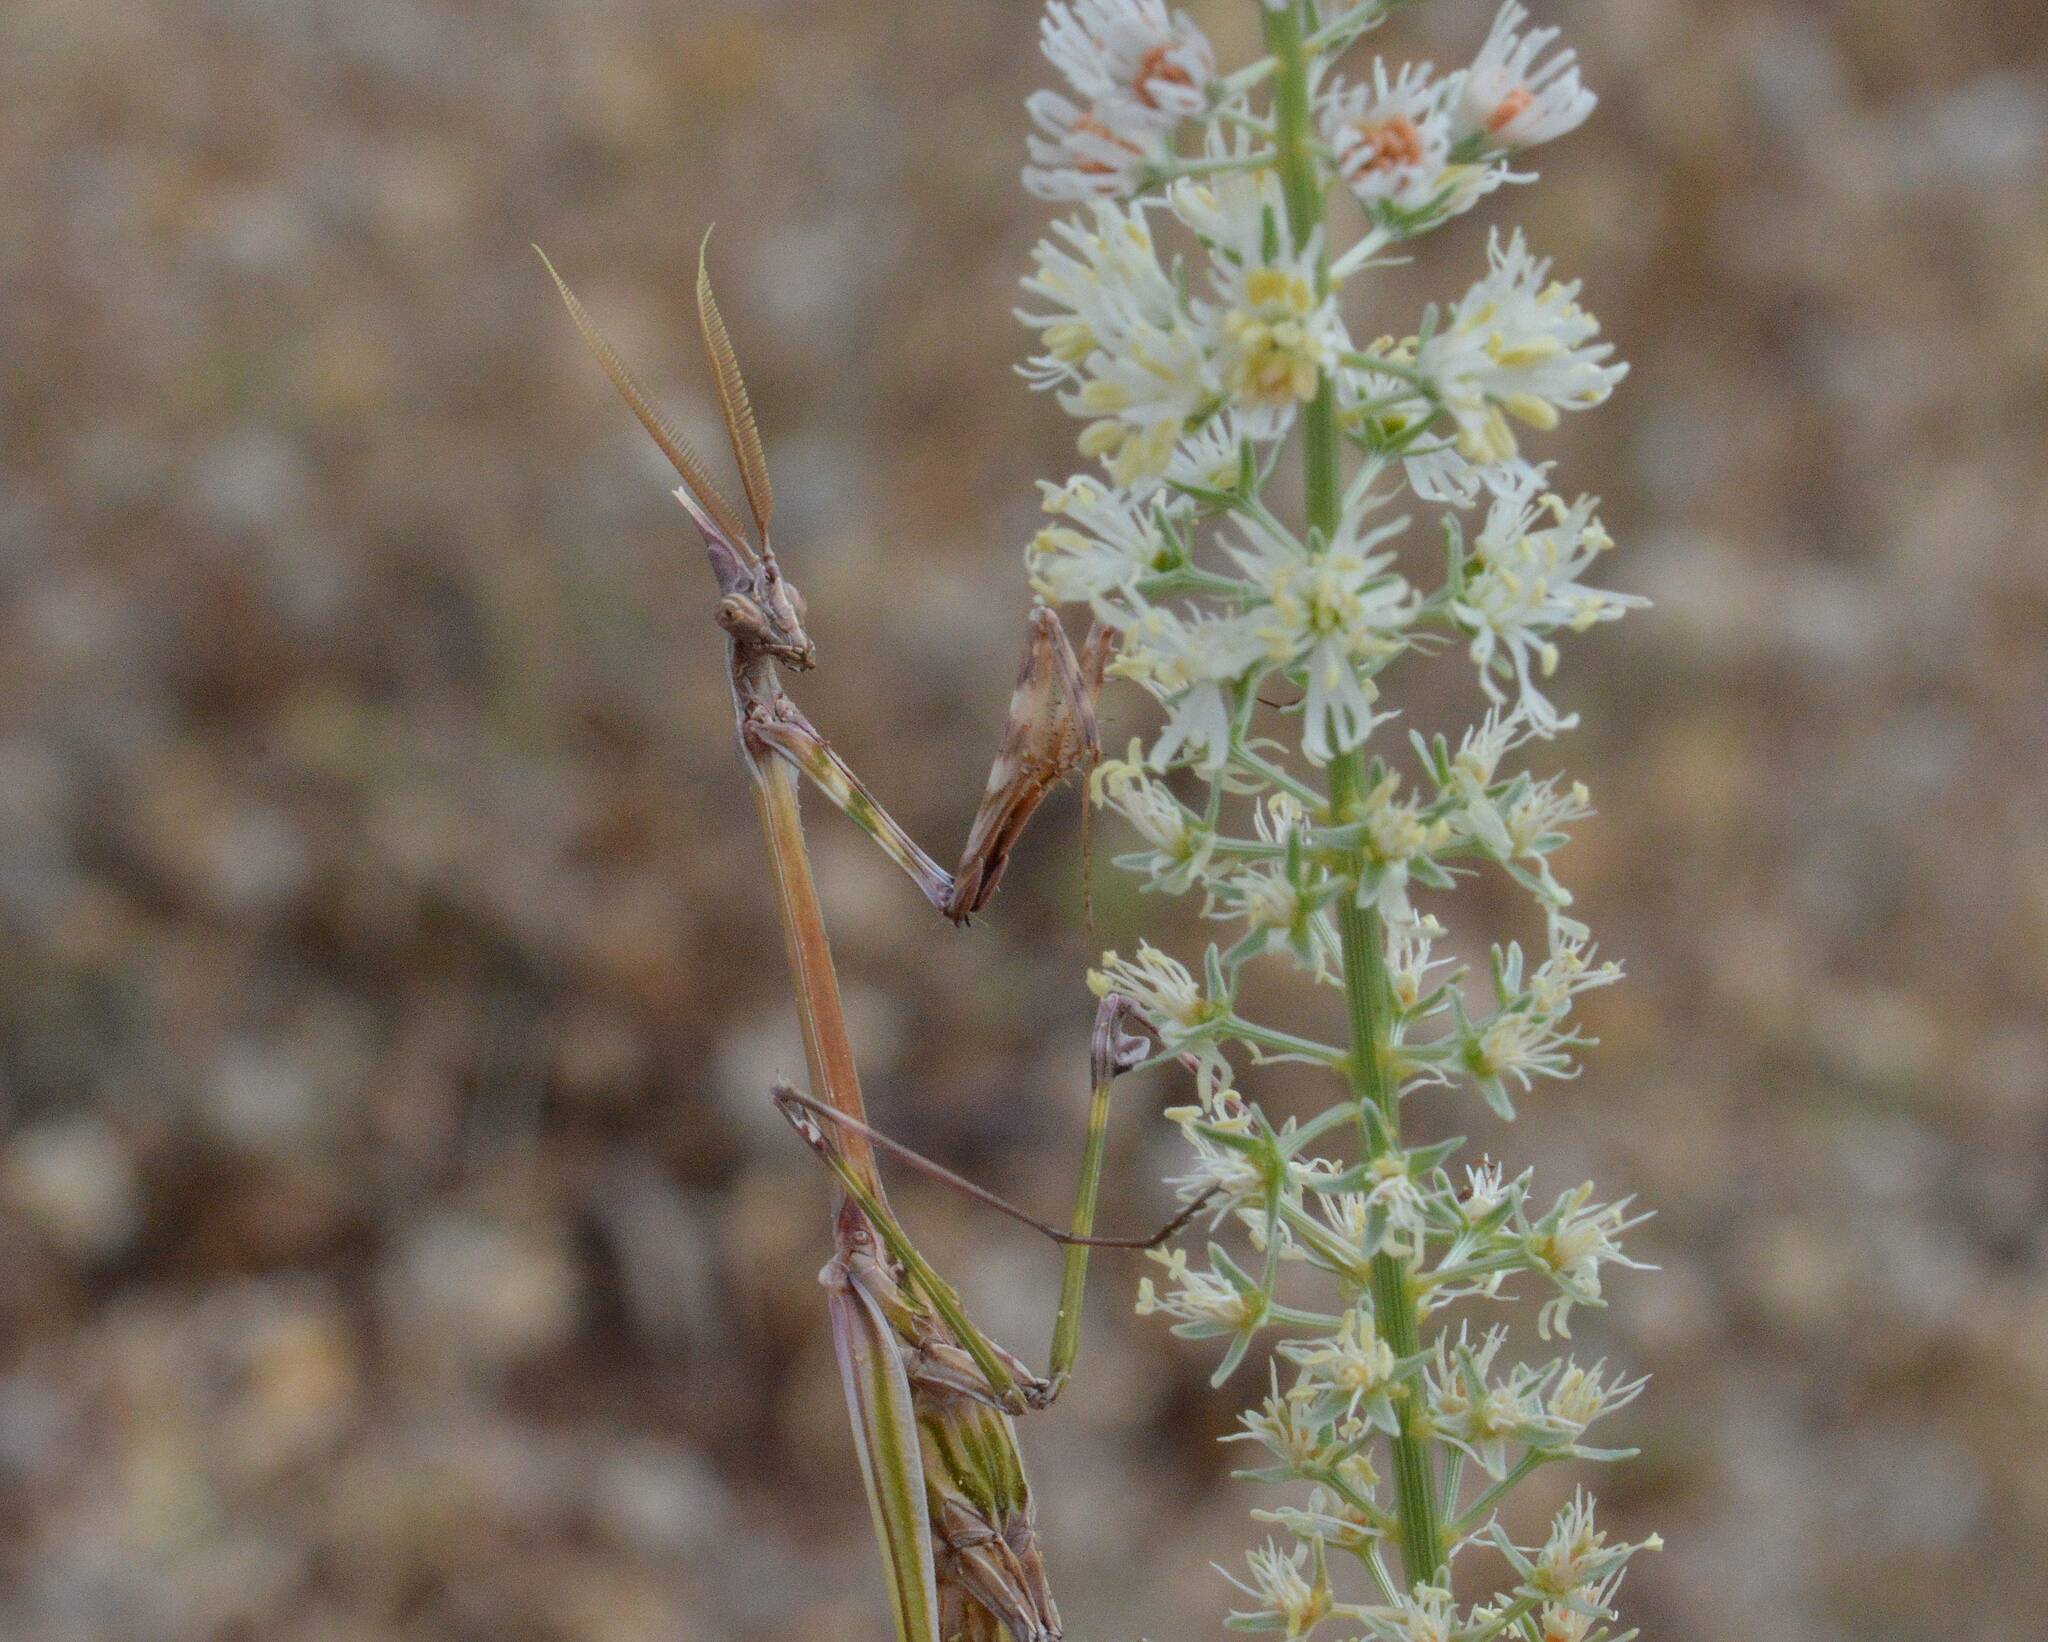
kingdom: Animalia
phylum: Arthropoda
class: Insecta
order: Mantodea
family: Empusidae
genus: Empusa
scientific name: Empusa pennata
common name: Conehead mantis
